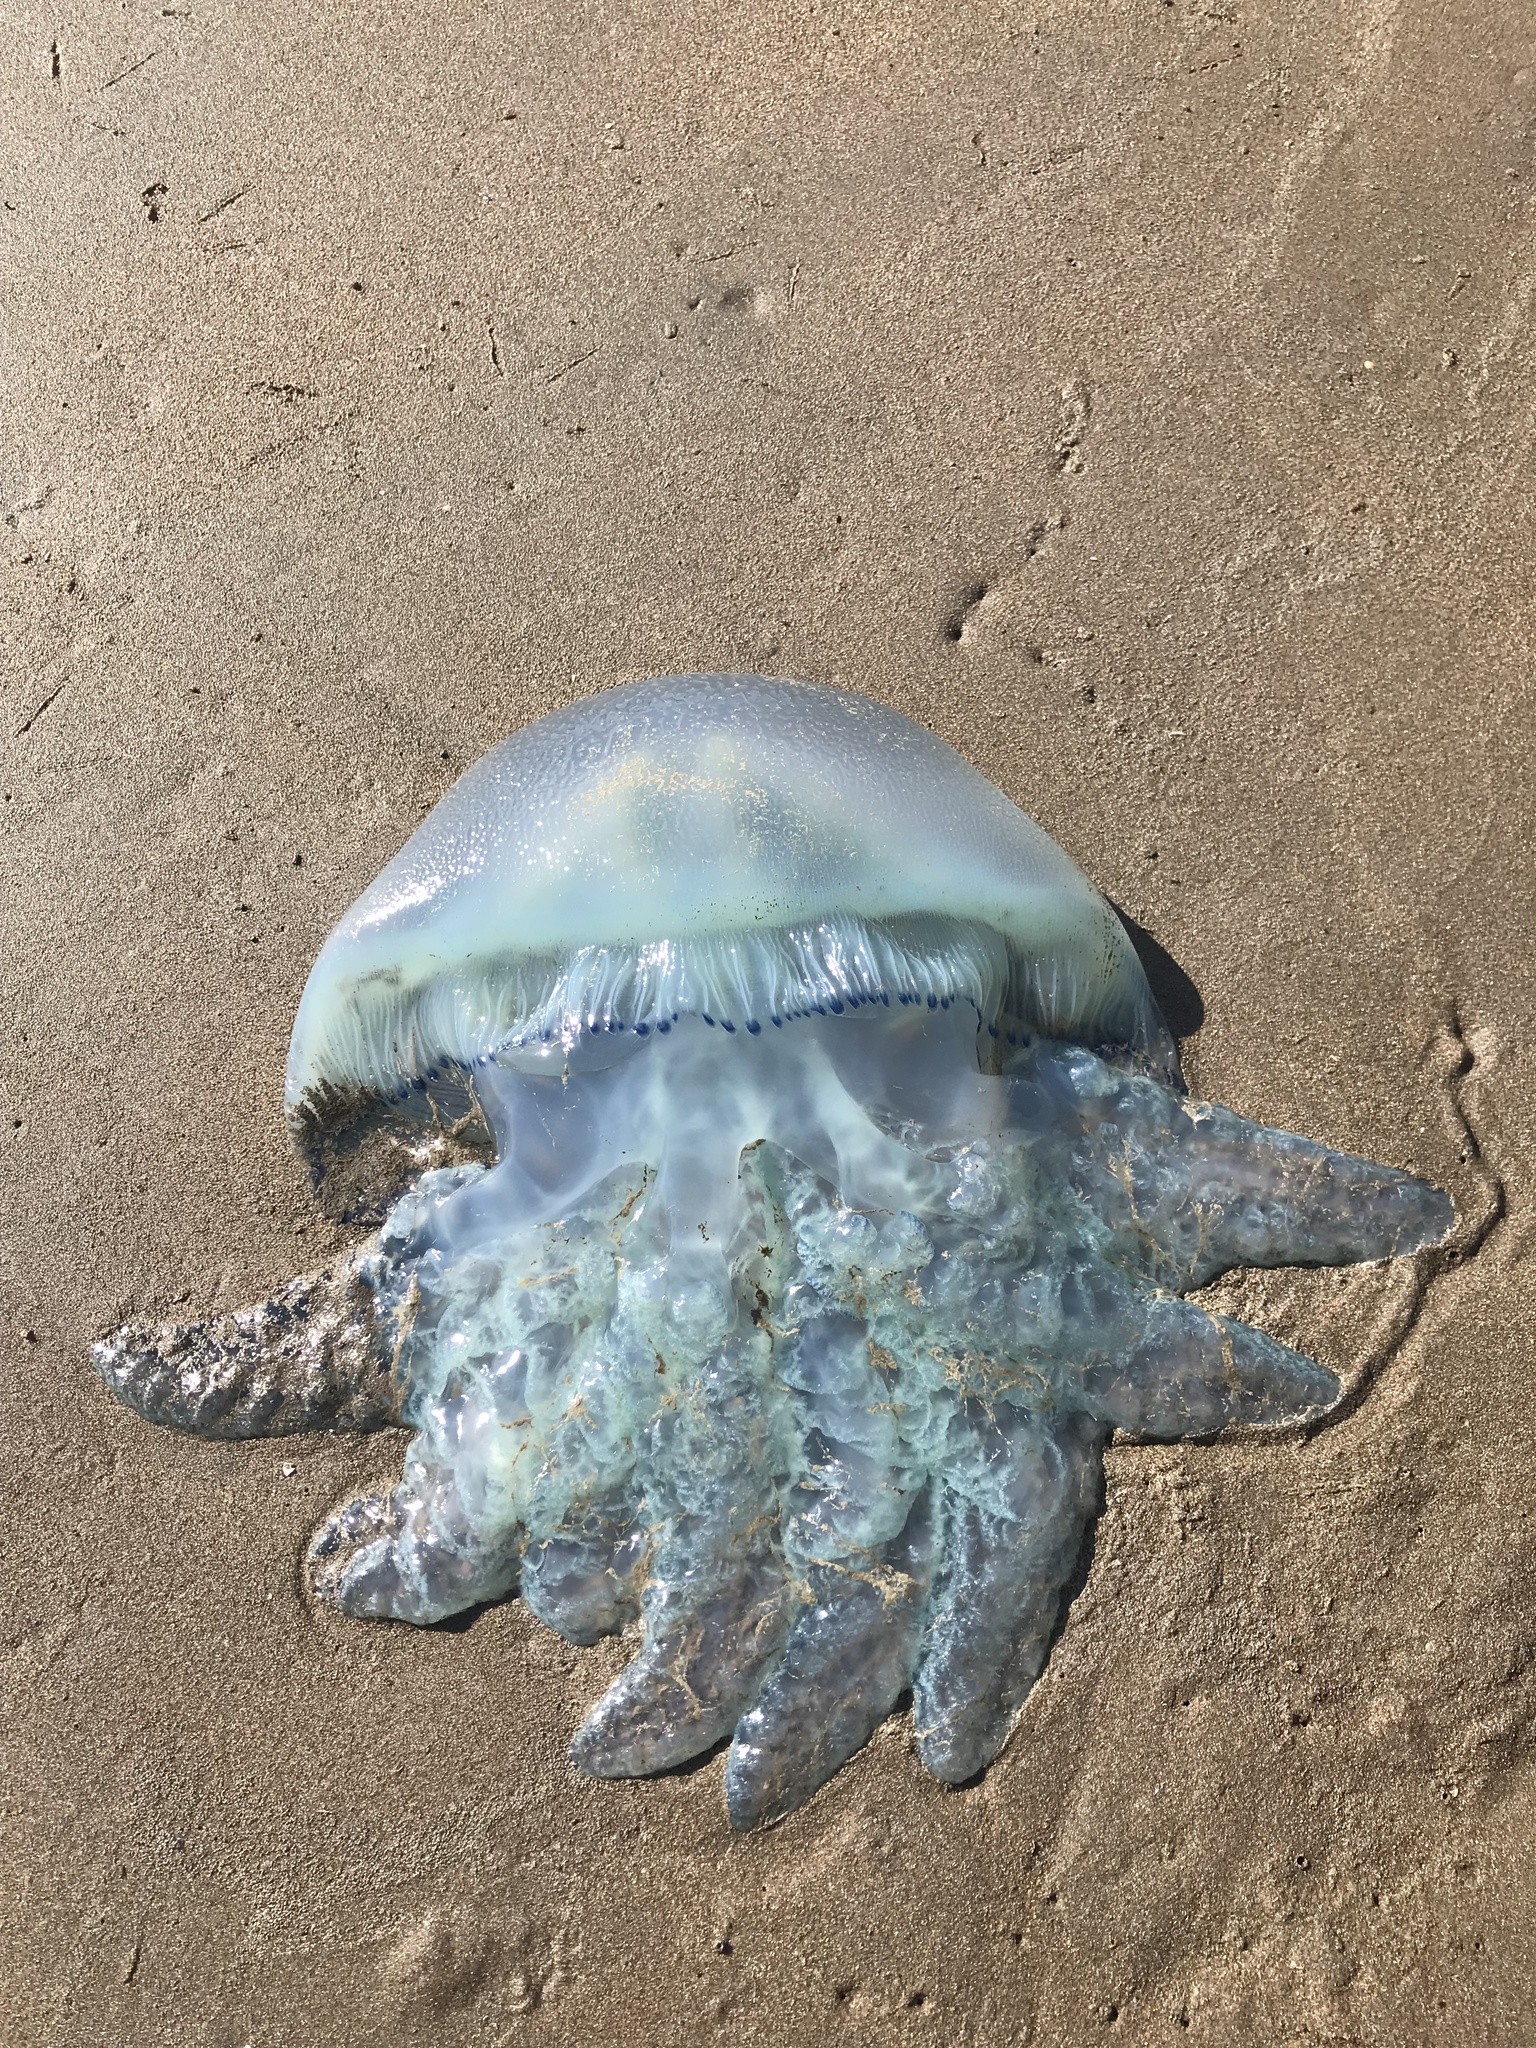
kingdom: Animalia
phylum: Cnidaria
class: Scyphozoa
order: Rhizostomeae
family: Catostylidae
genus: Catostylus
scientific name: Catostylus mosaicus
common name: Blue blubber
